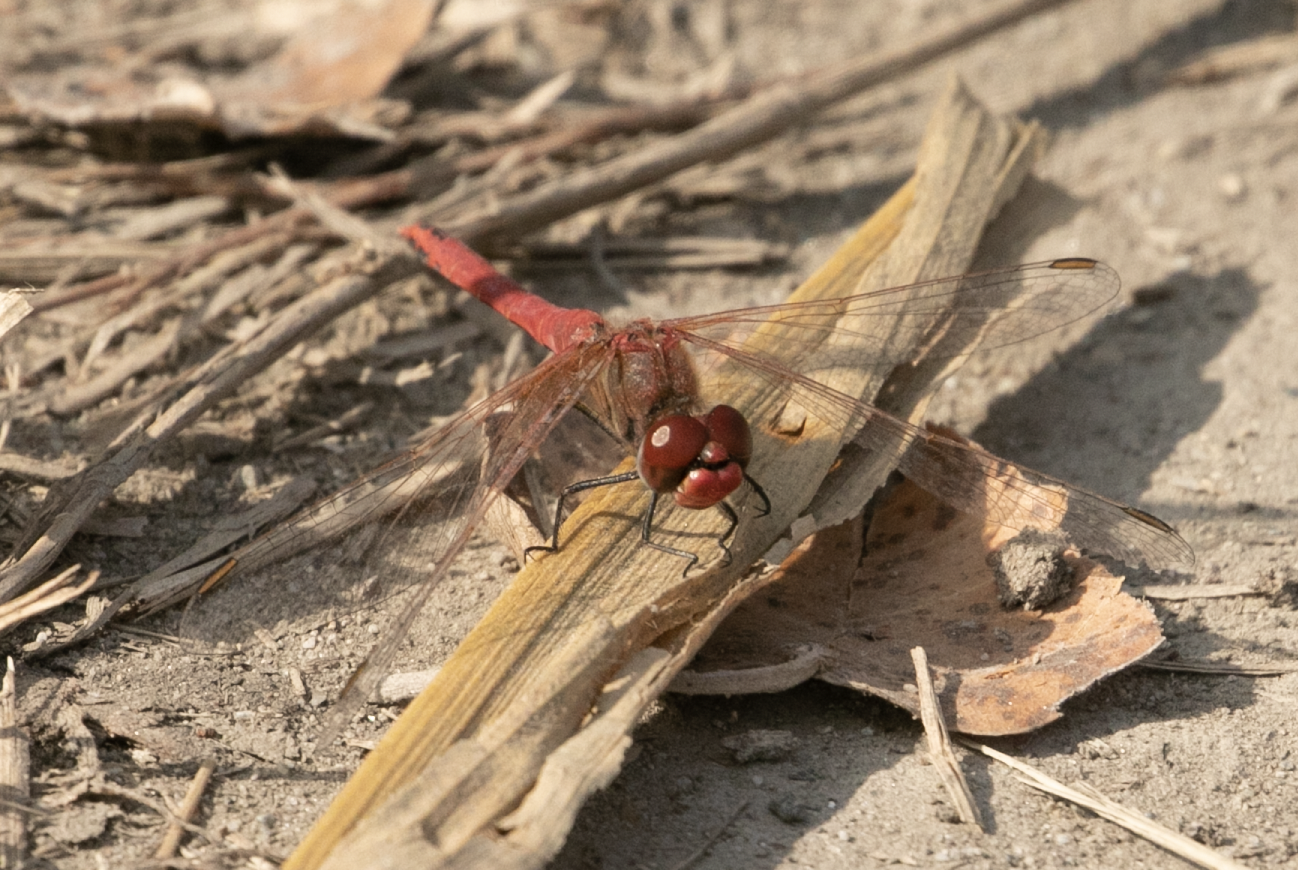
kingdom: Animalia
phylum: Arthropoda
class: Insecta
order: Odonata
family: Libellulidae
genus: Sympetrum
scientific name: Sympetrum fonscolombii
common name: Red-veined darter
